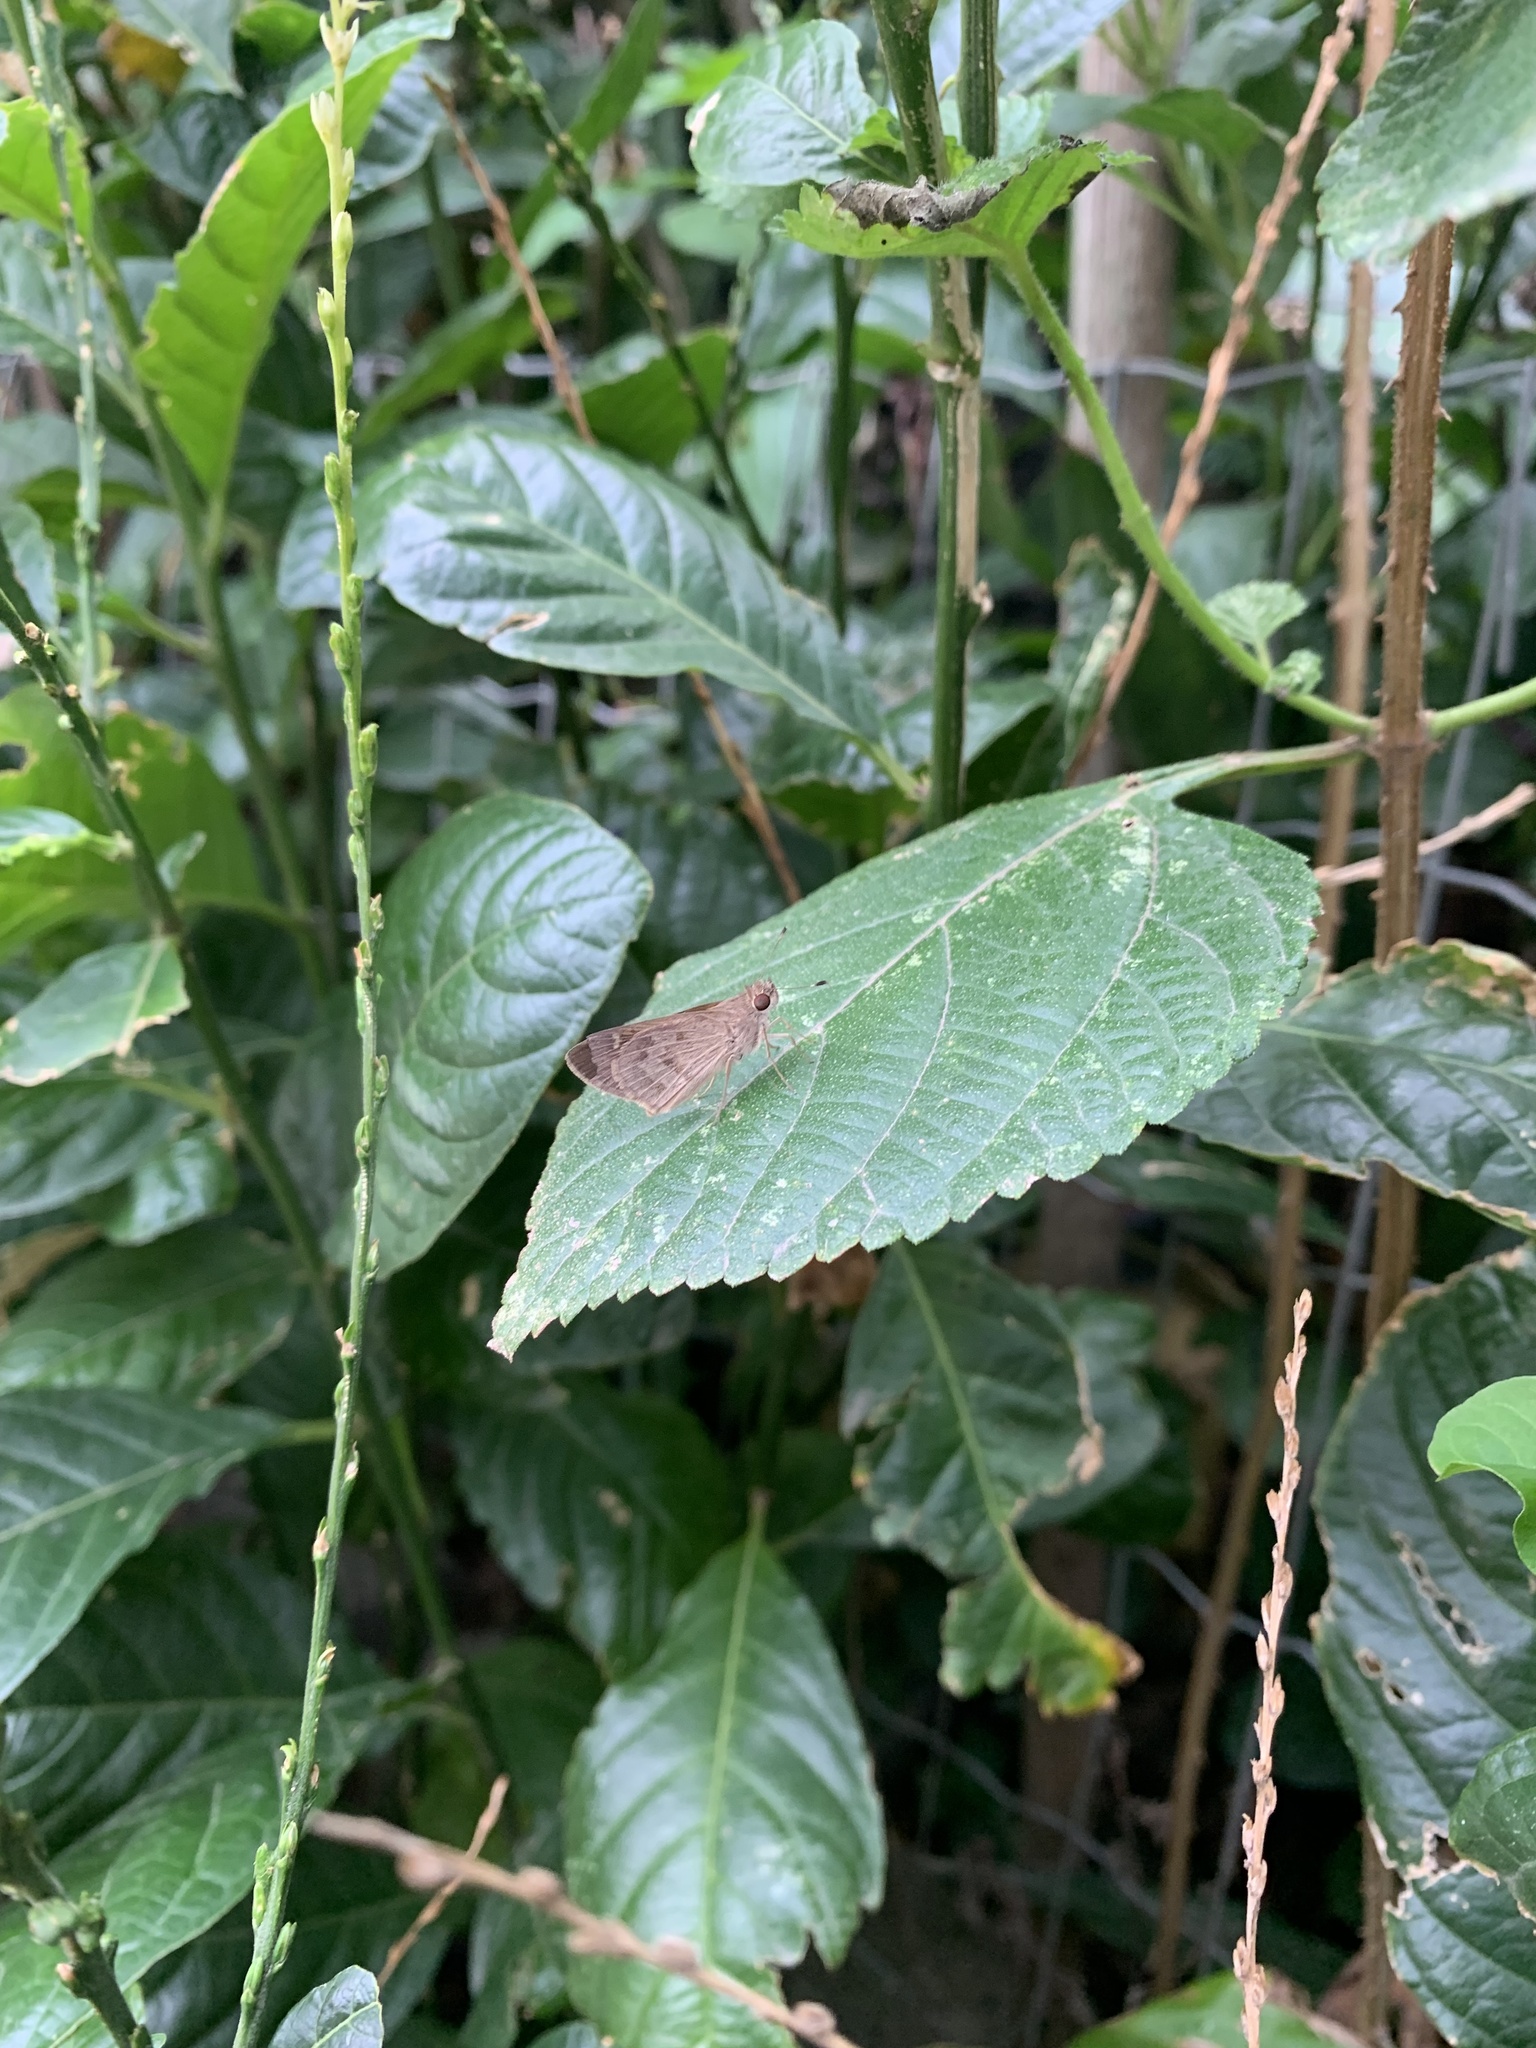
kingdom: Animalia
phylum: Arthropoda
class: Insecta
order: Lepidoptera
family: Hesperiidae
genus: Callimormus
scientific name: Callimormus saturnus
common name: Saturnus skipper
